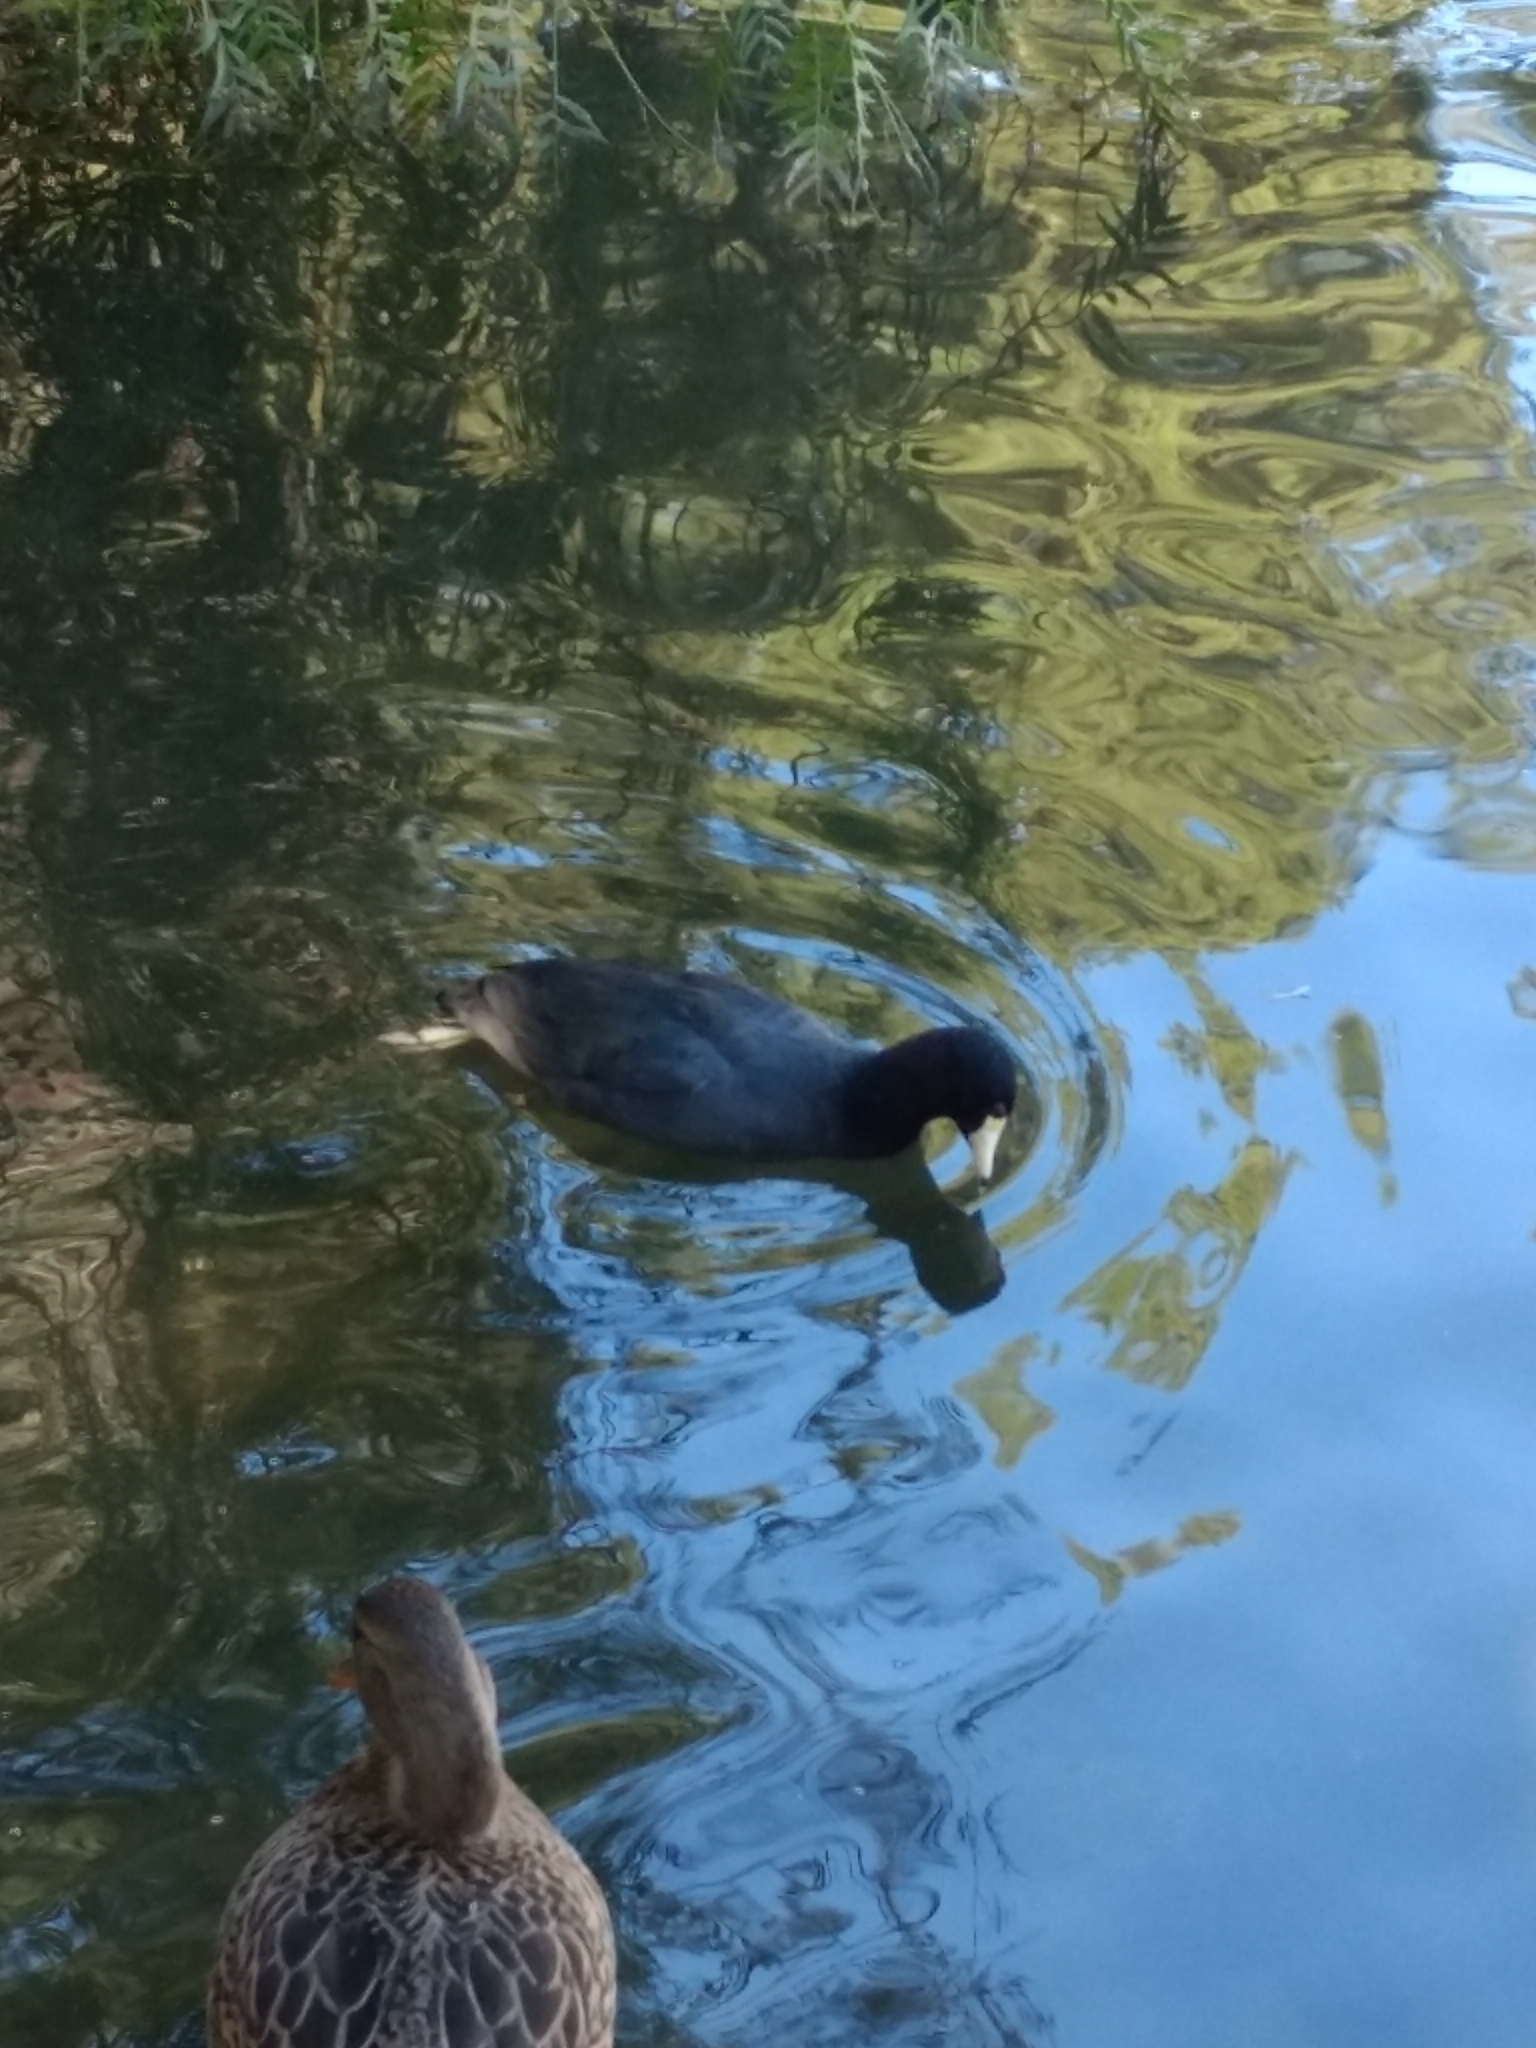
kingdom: Animalia
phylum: Chordata
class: Aves
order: Gruiformes
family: Rallidae
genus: Fulica
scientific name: Fulica americana
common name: American coot
